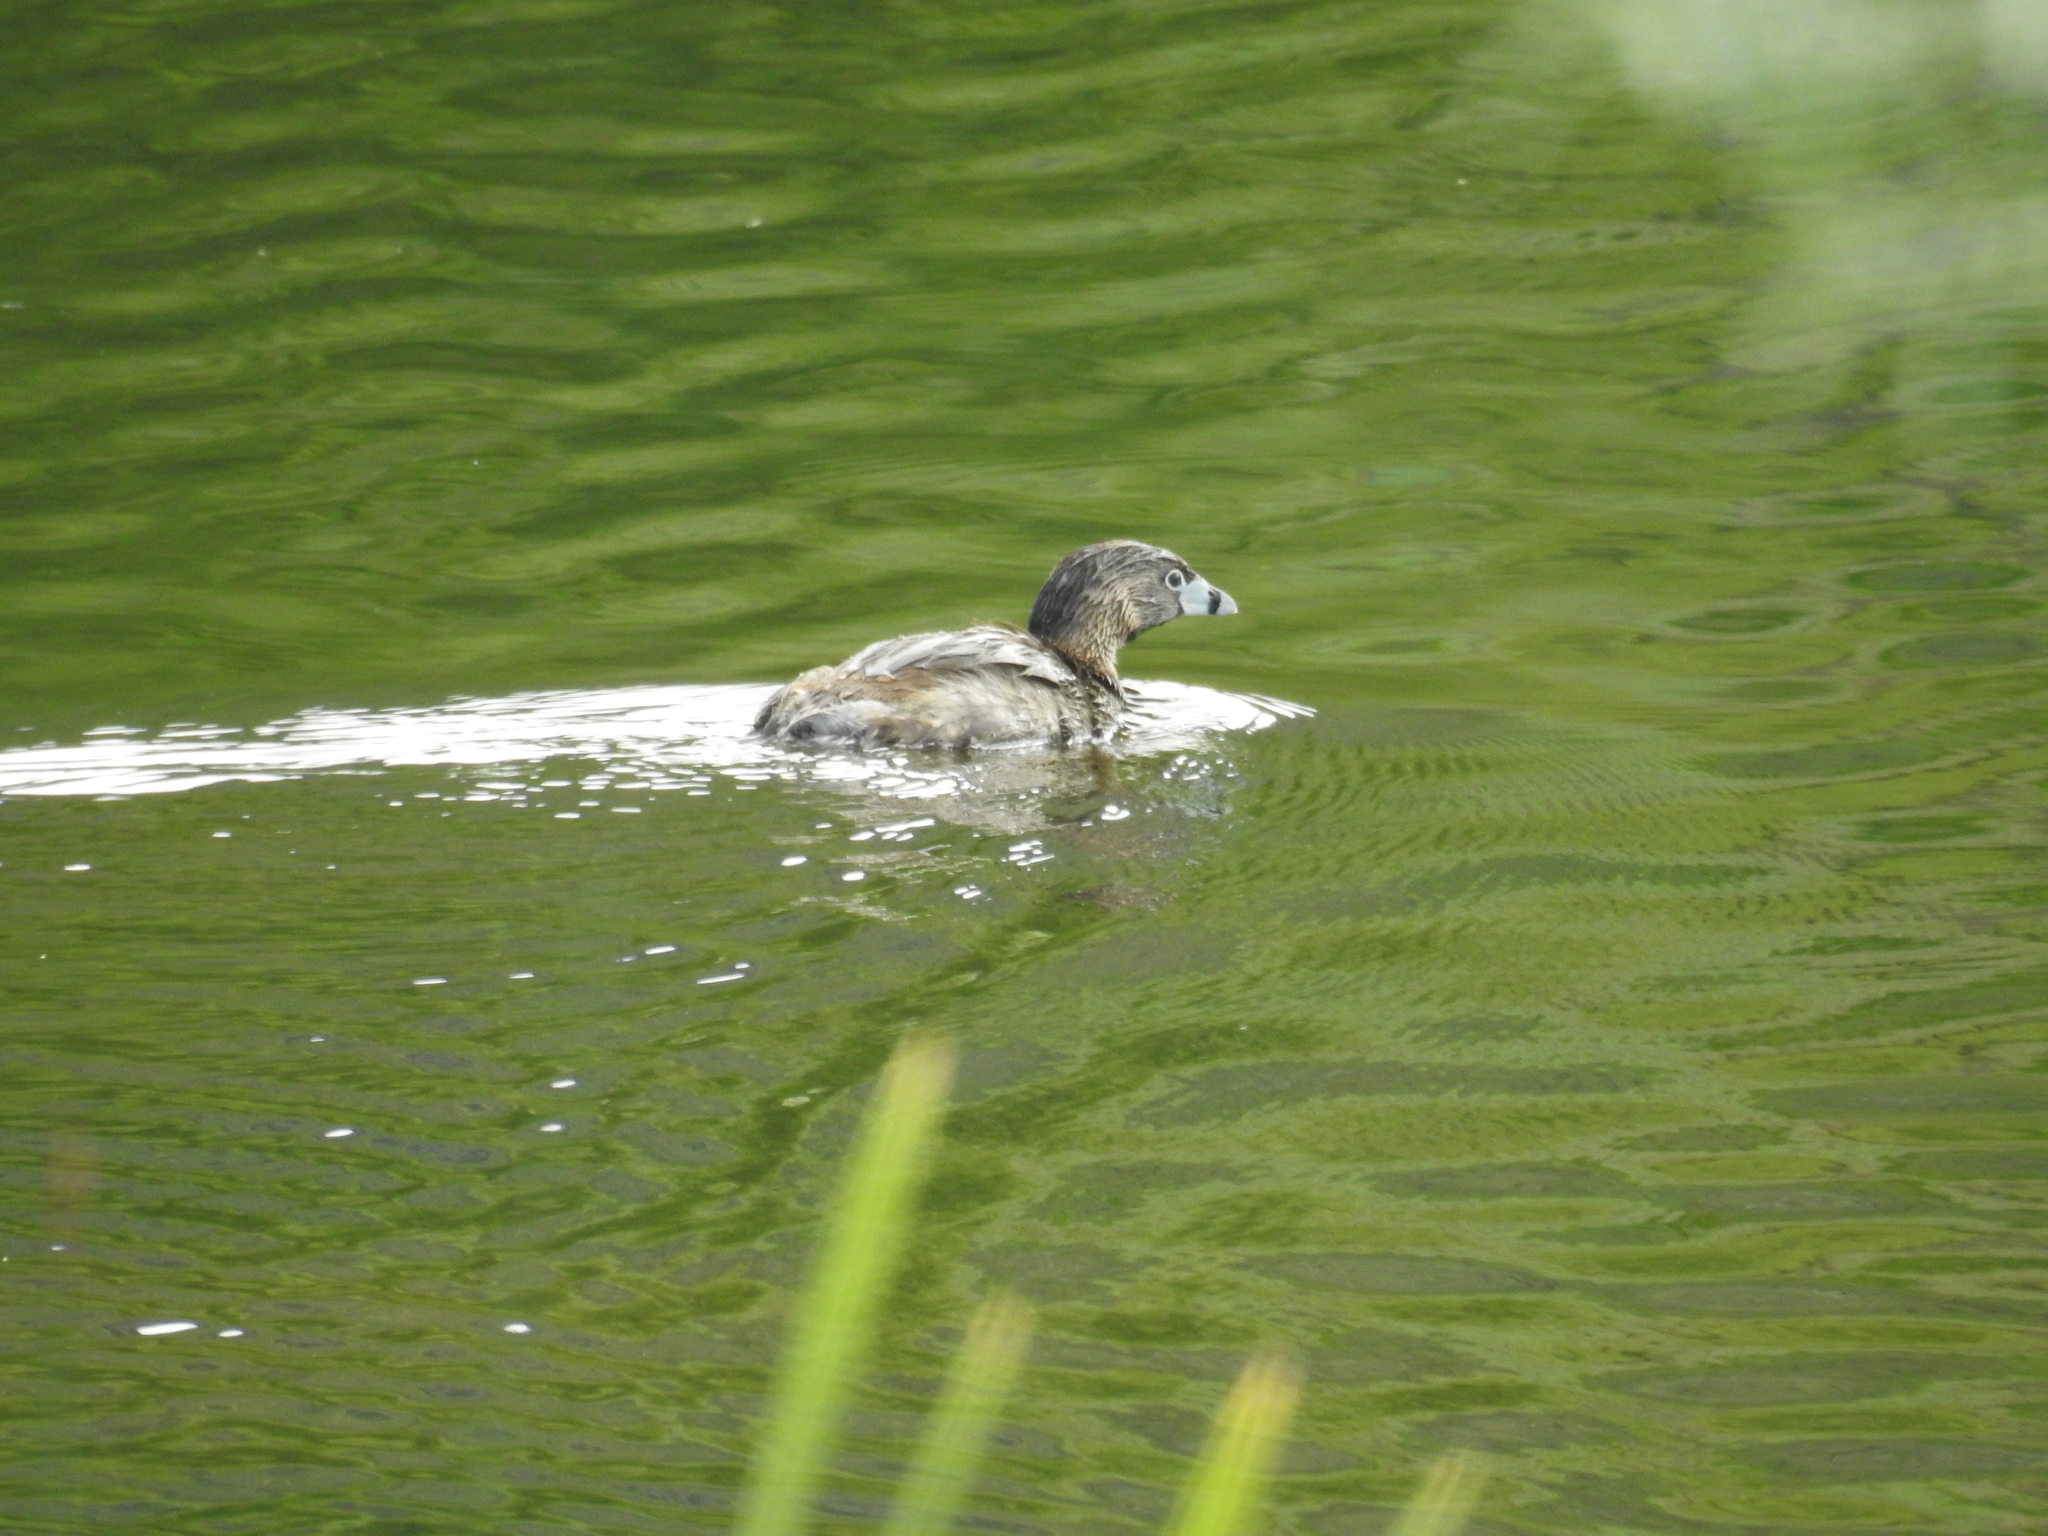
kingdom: Animalia
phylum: Chordata
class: Aves
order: Podicipediformes
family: Podicipedidae
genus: Podilymbus
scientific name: Podilymbus podiceps
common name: Pied-billed grebe
